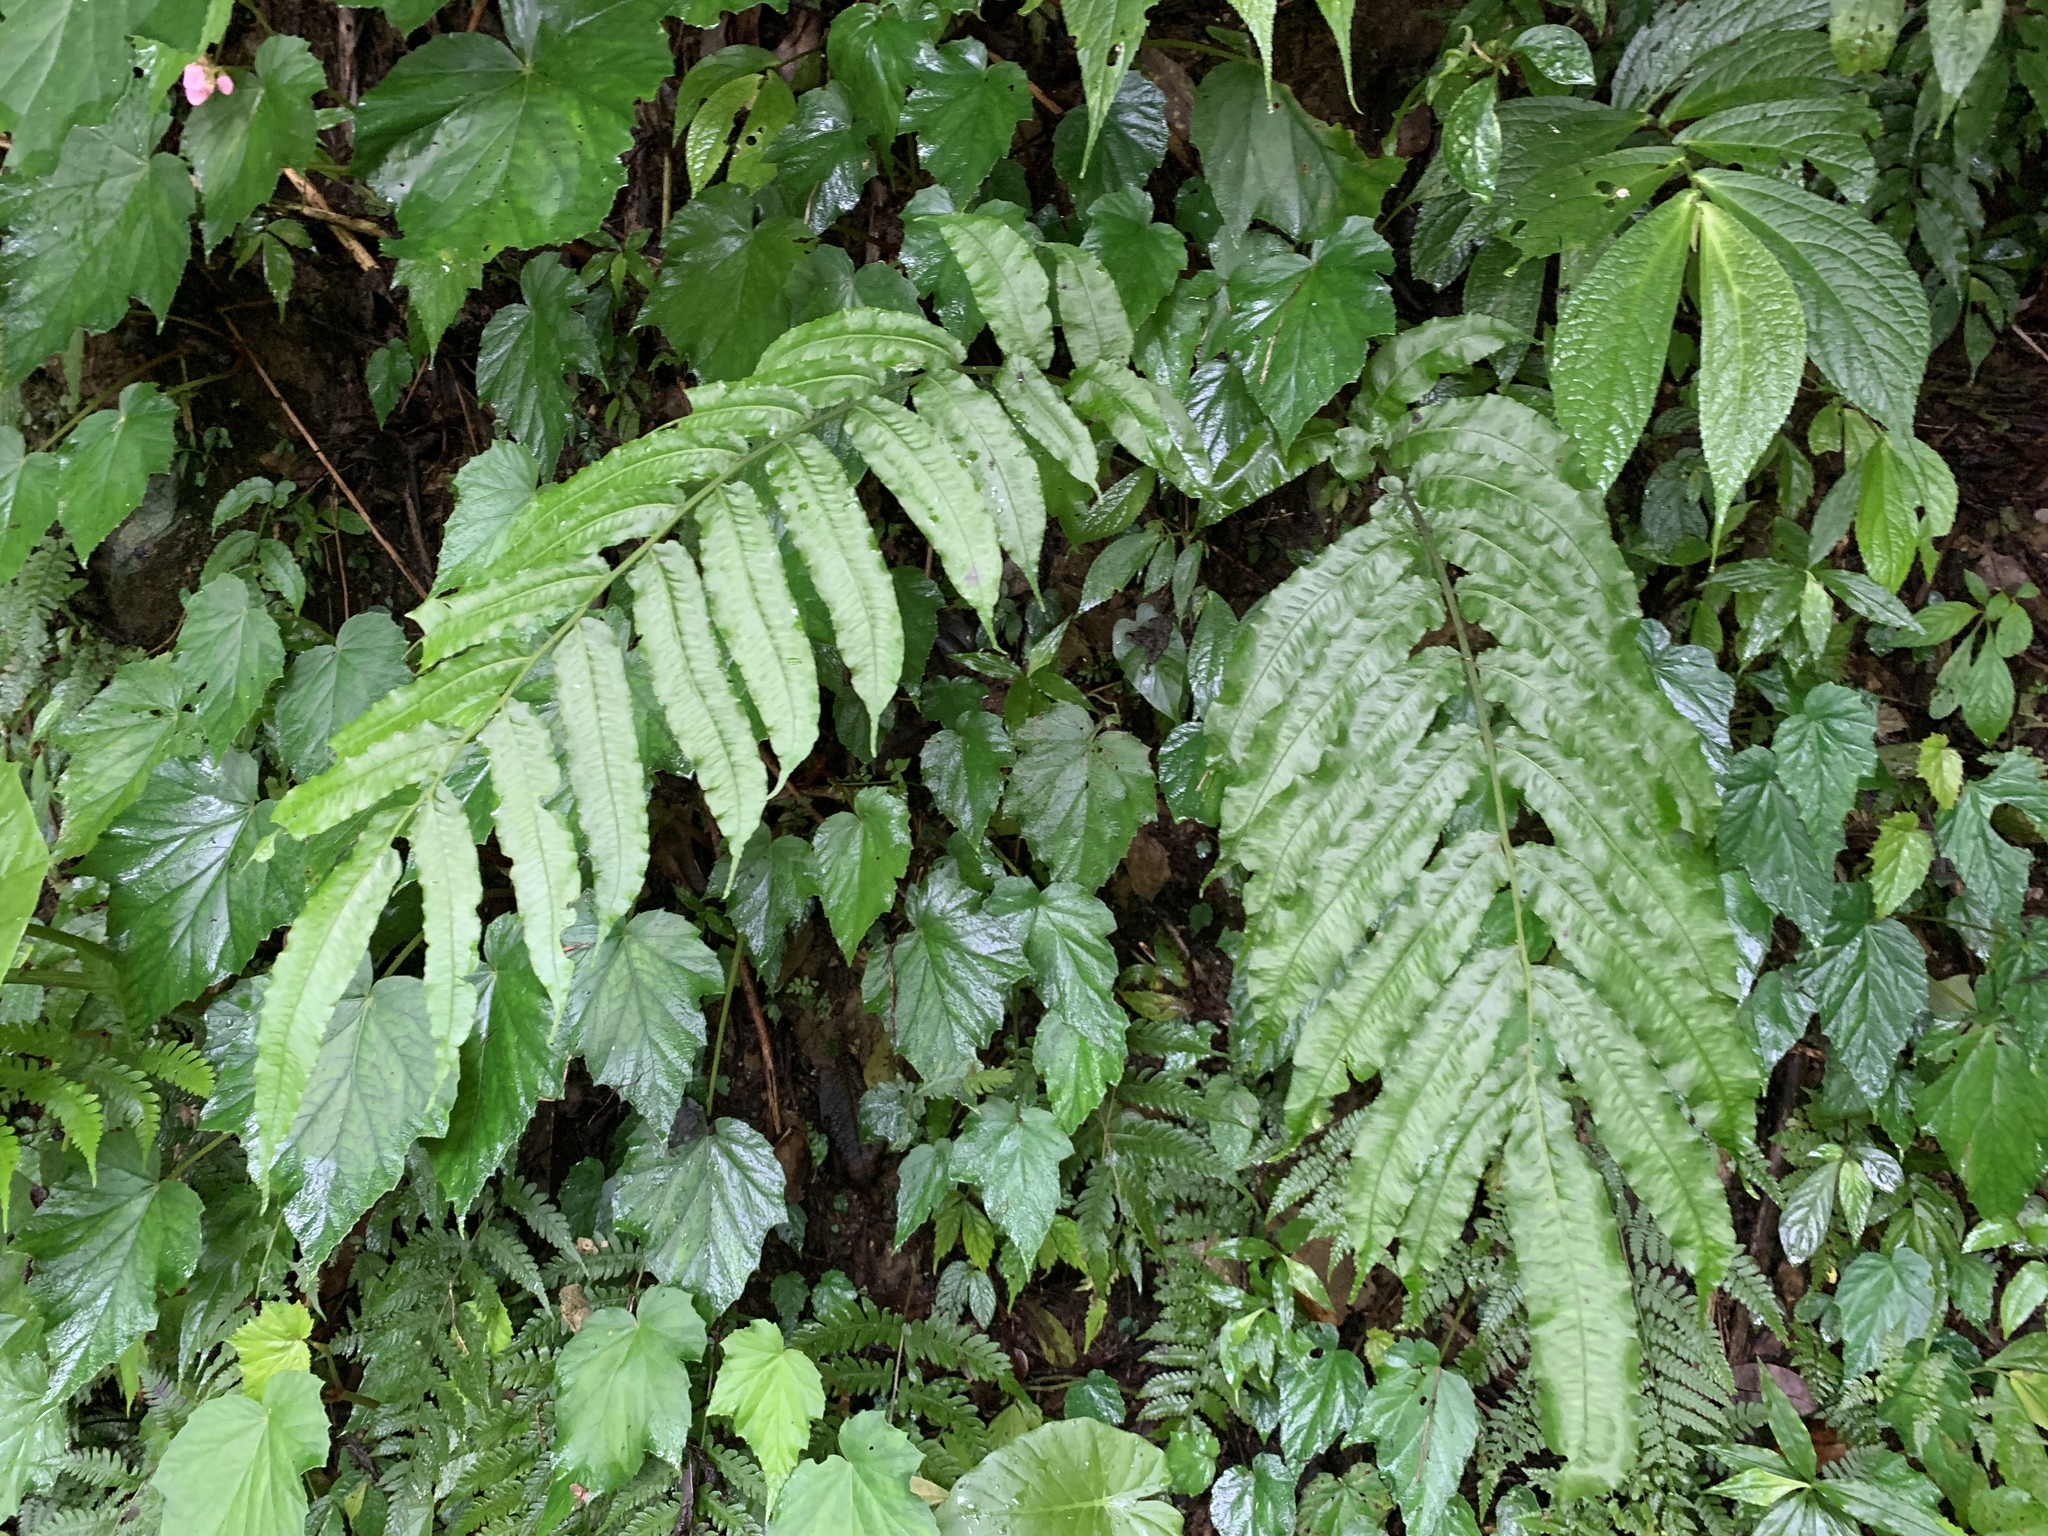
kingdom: Plantae
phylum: Tracheophyta
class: Polypodiopsida
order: Polypodiales
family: Diplaziopsidaceae
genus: Diplaziopsis
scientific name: Diplaziopsis javanica
